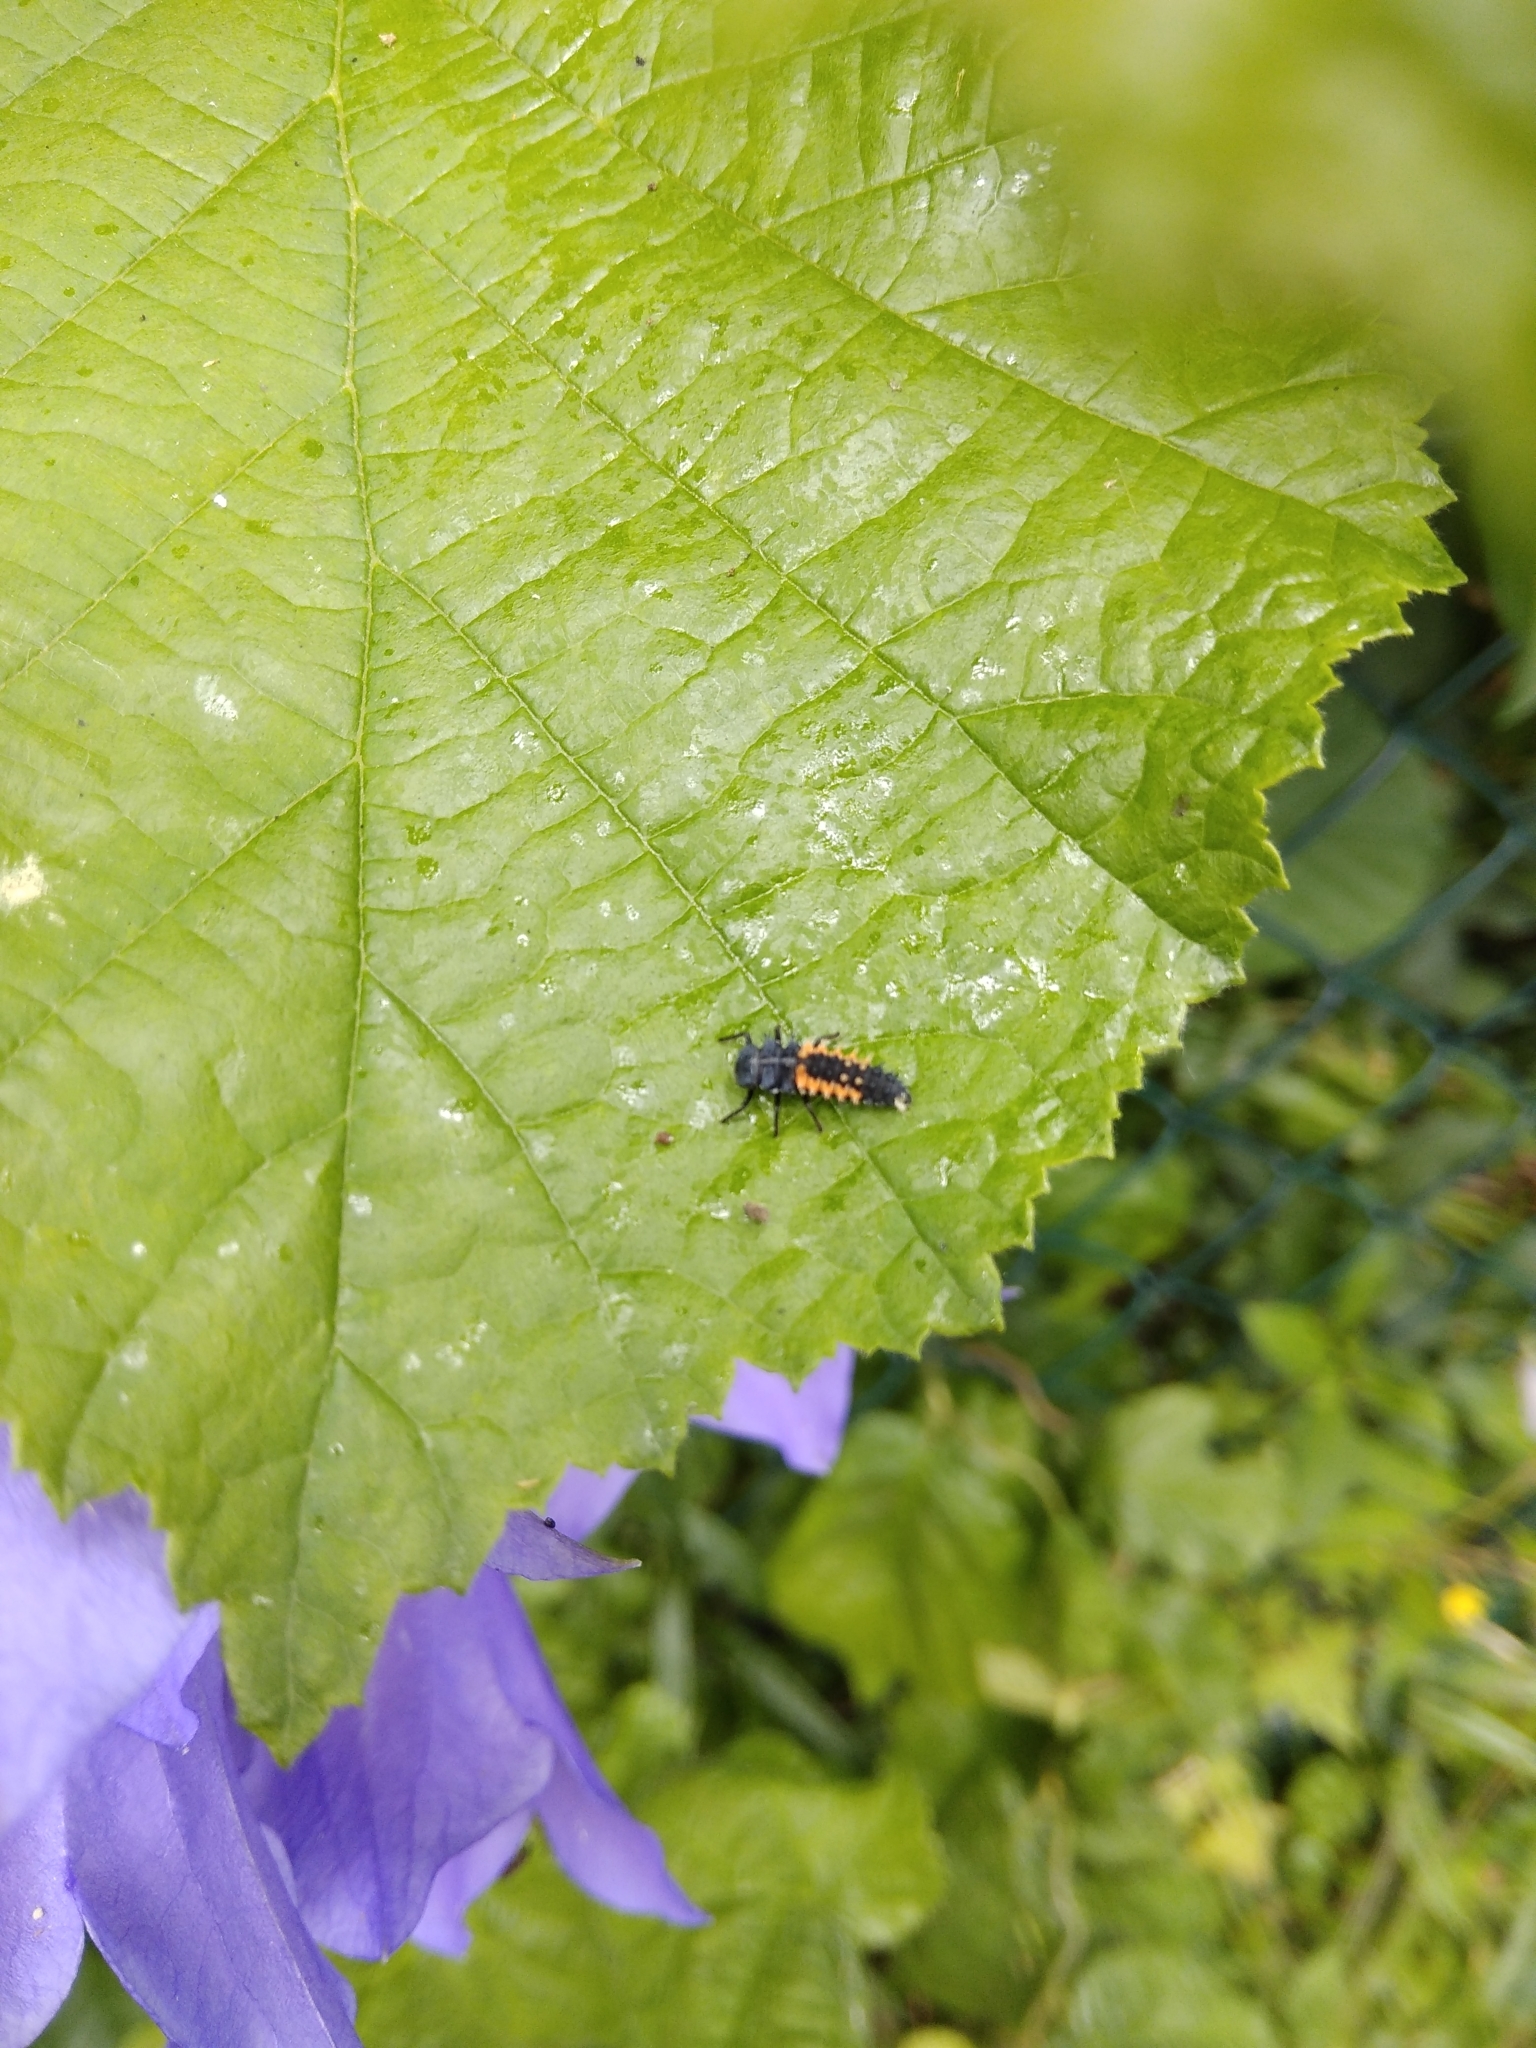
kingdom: Animalia
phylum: Arthropoda
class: Insecta
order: Coleoptera
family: Coccinellidae
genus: Harmonia
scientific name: Harmonia axyridis
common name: Harlequin ladybird
